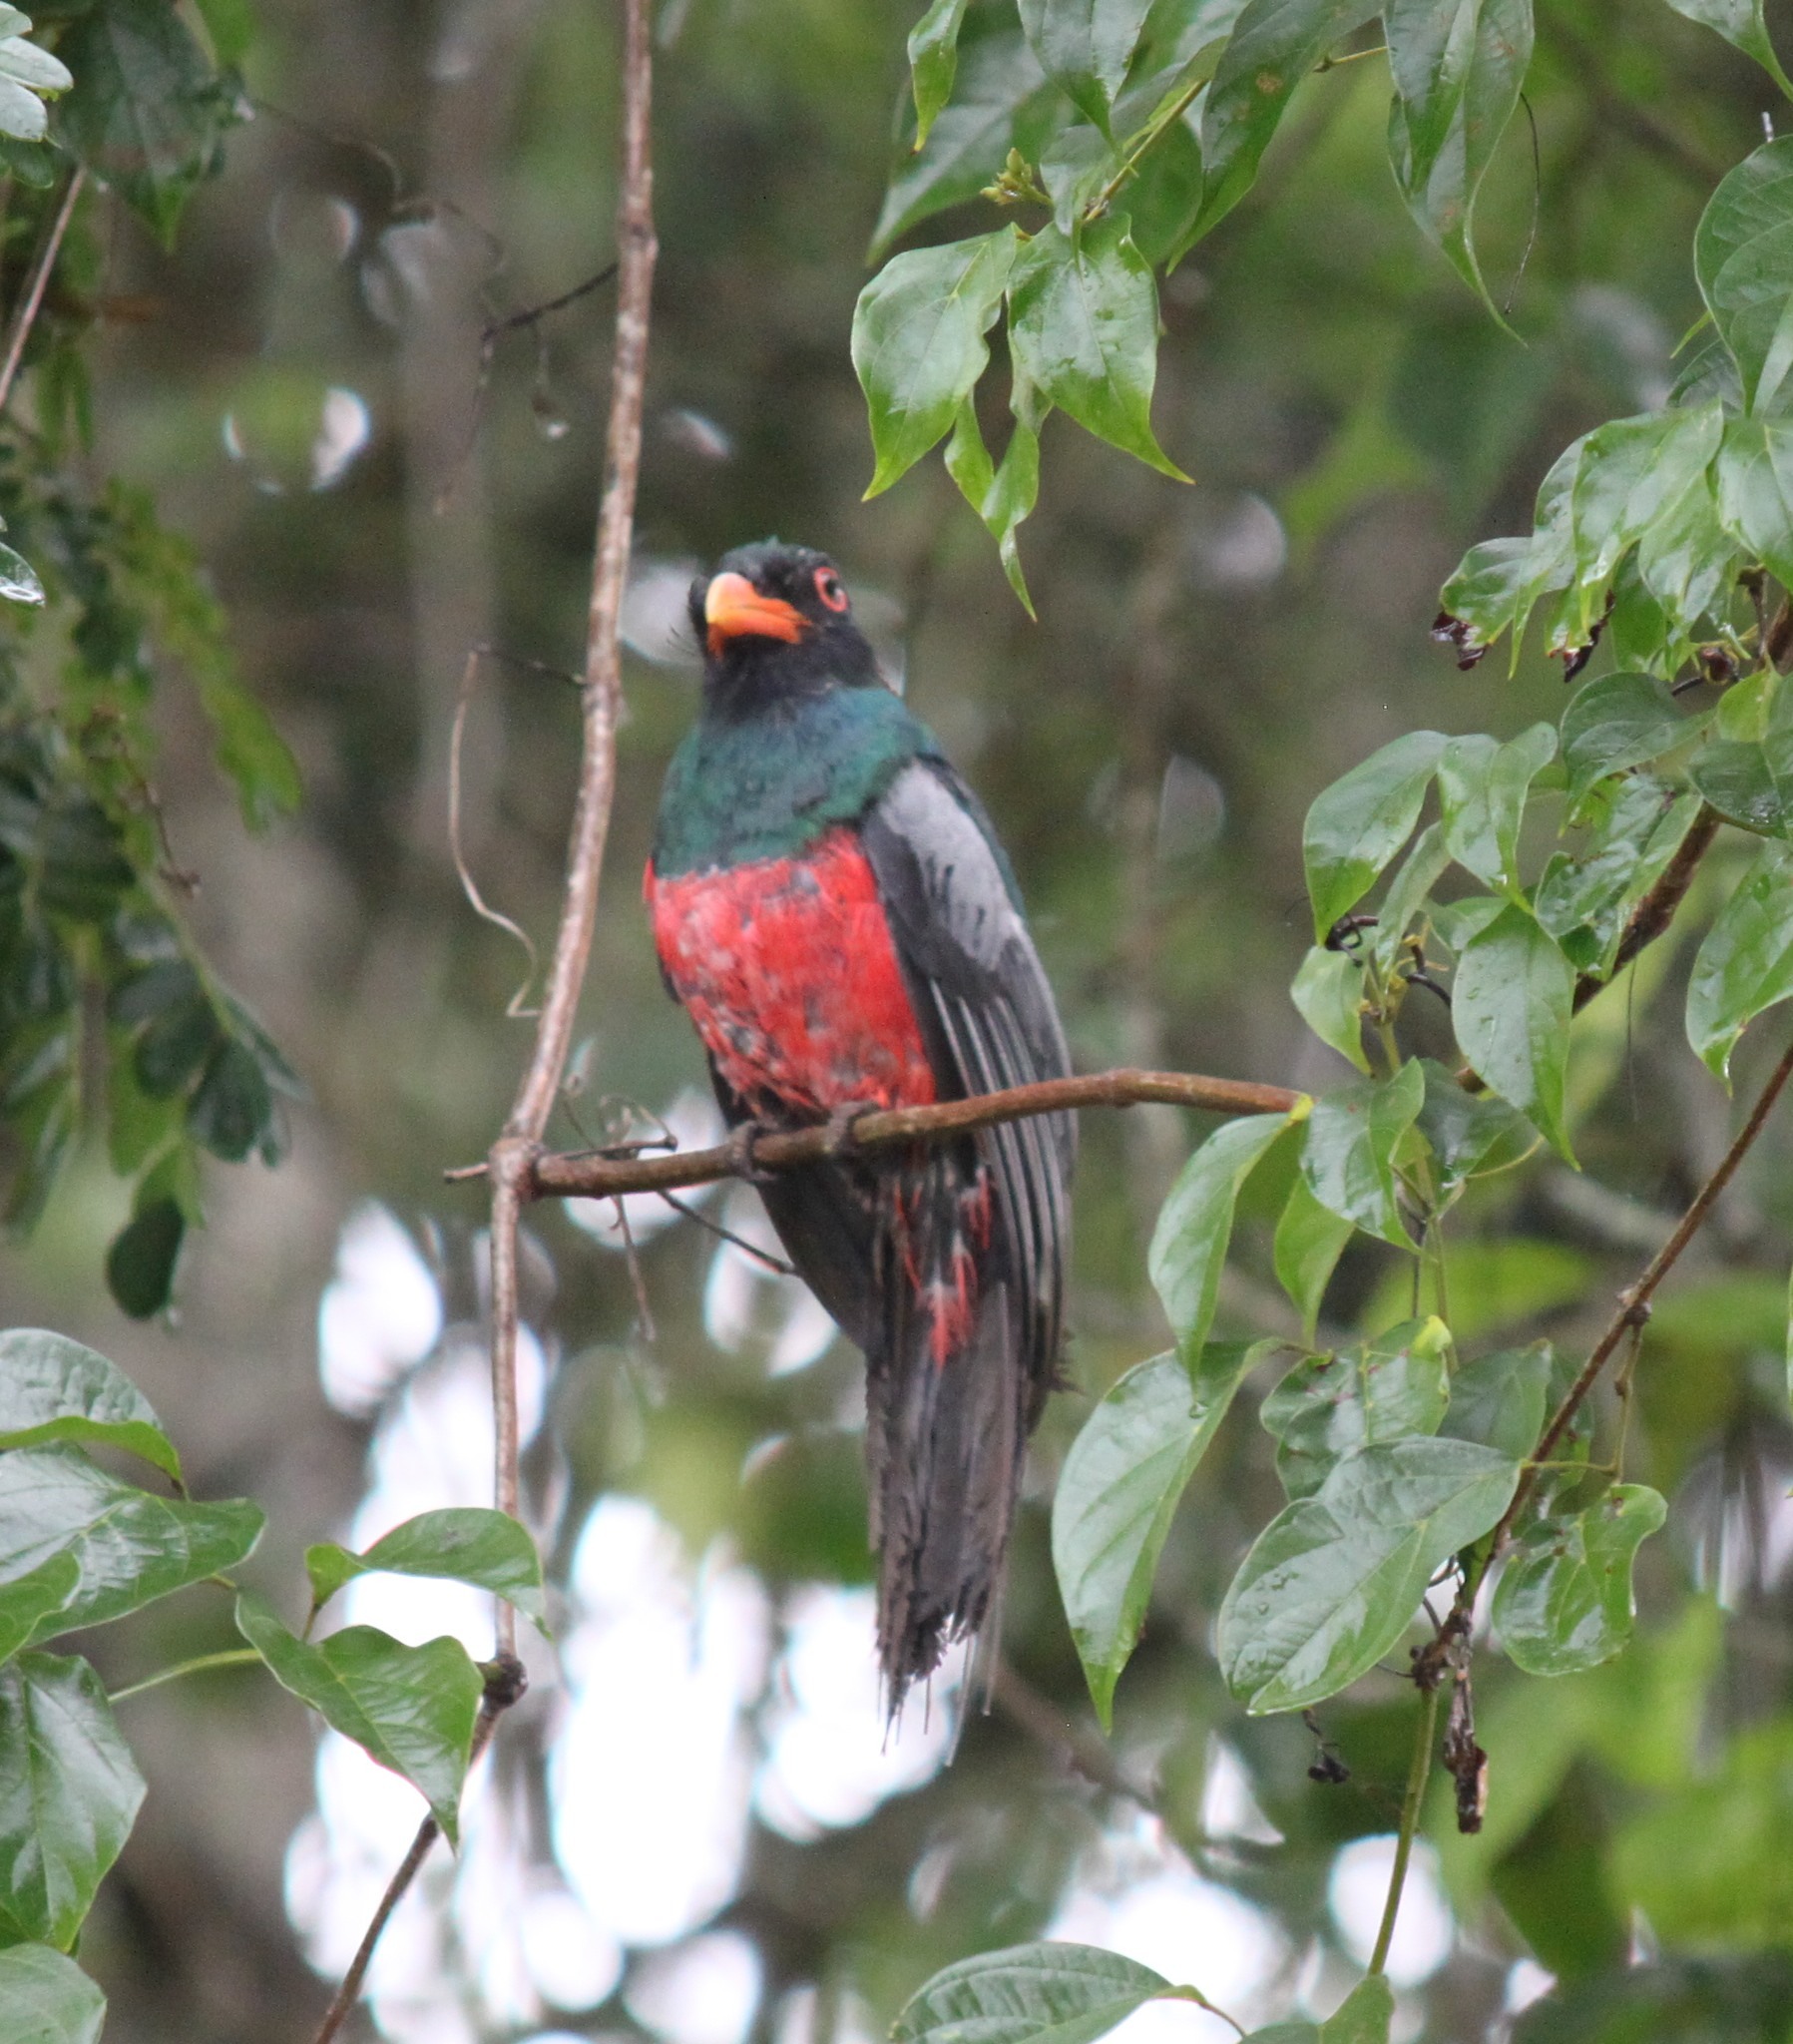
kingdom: Animalia
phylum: Chordata
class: Aves
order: Trogoniformes
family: Trogonidae
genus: Trogon
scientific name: Trogon massena
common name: Slaty-tailed trogon
